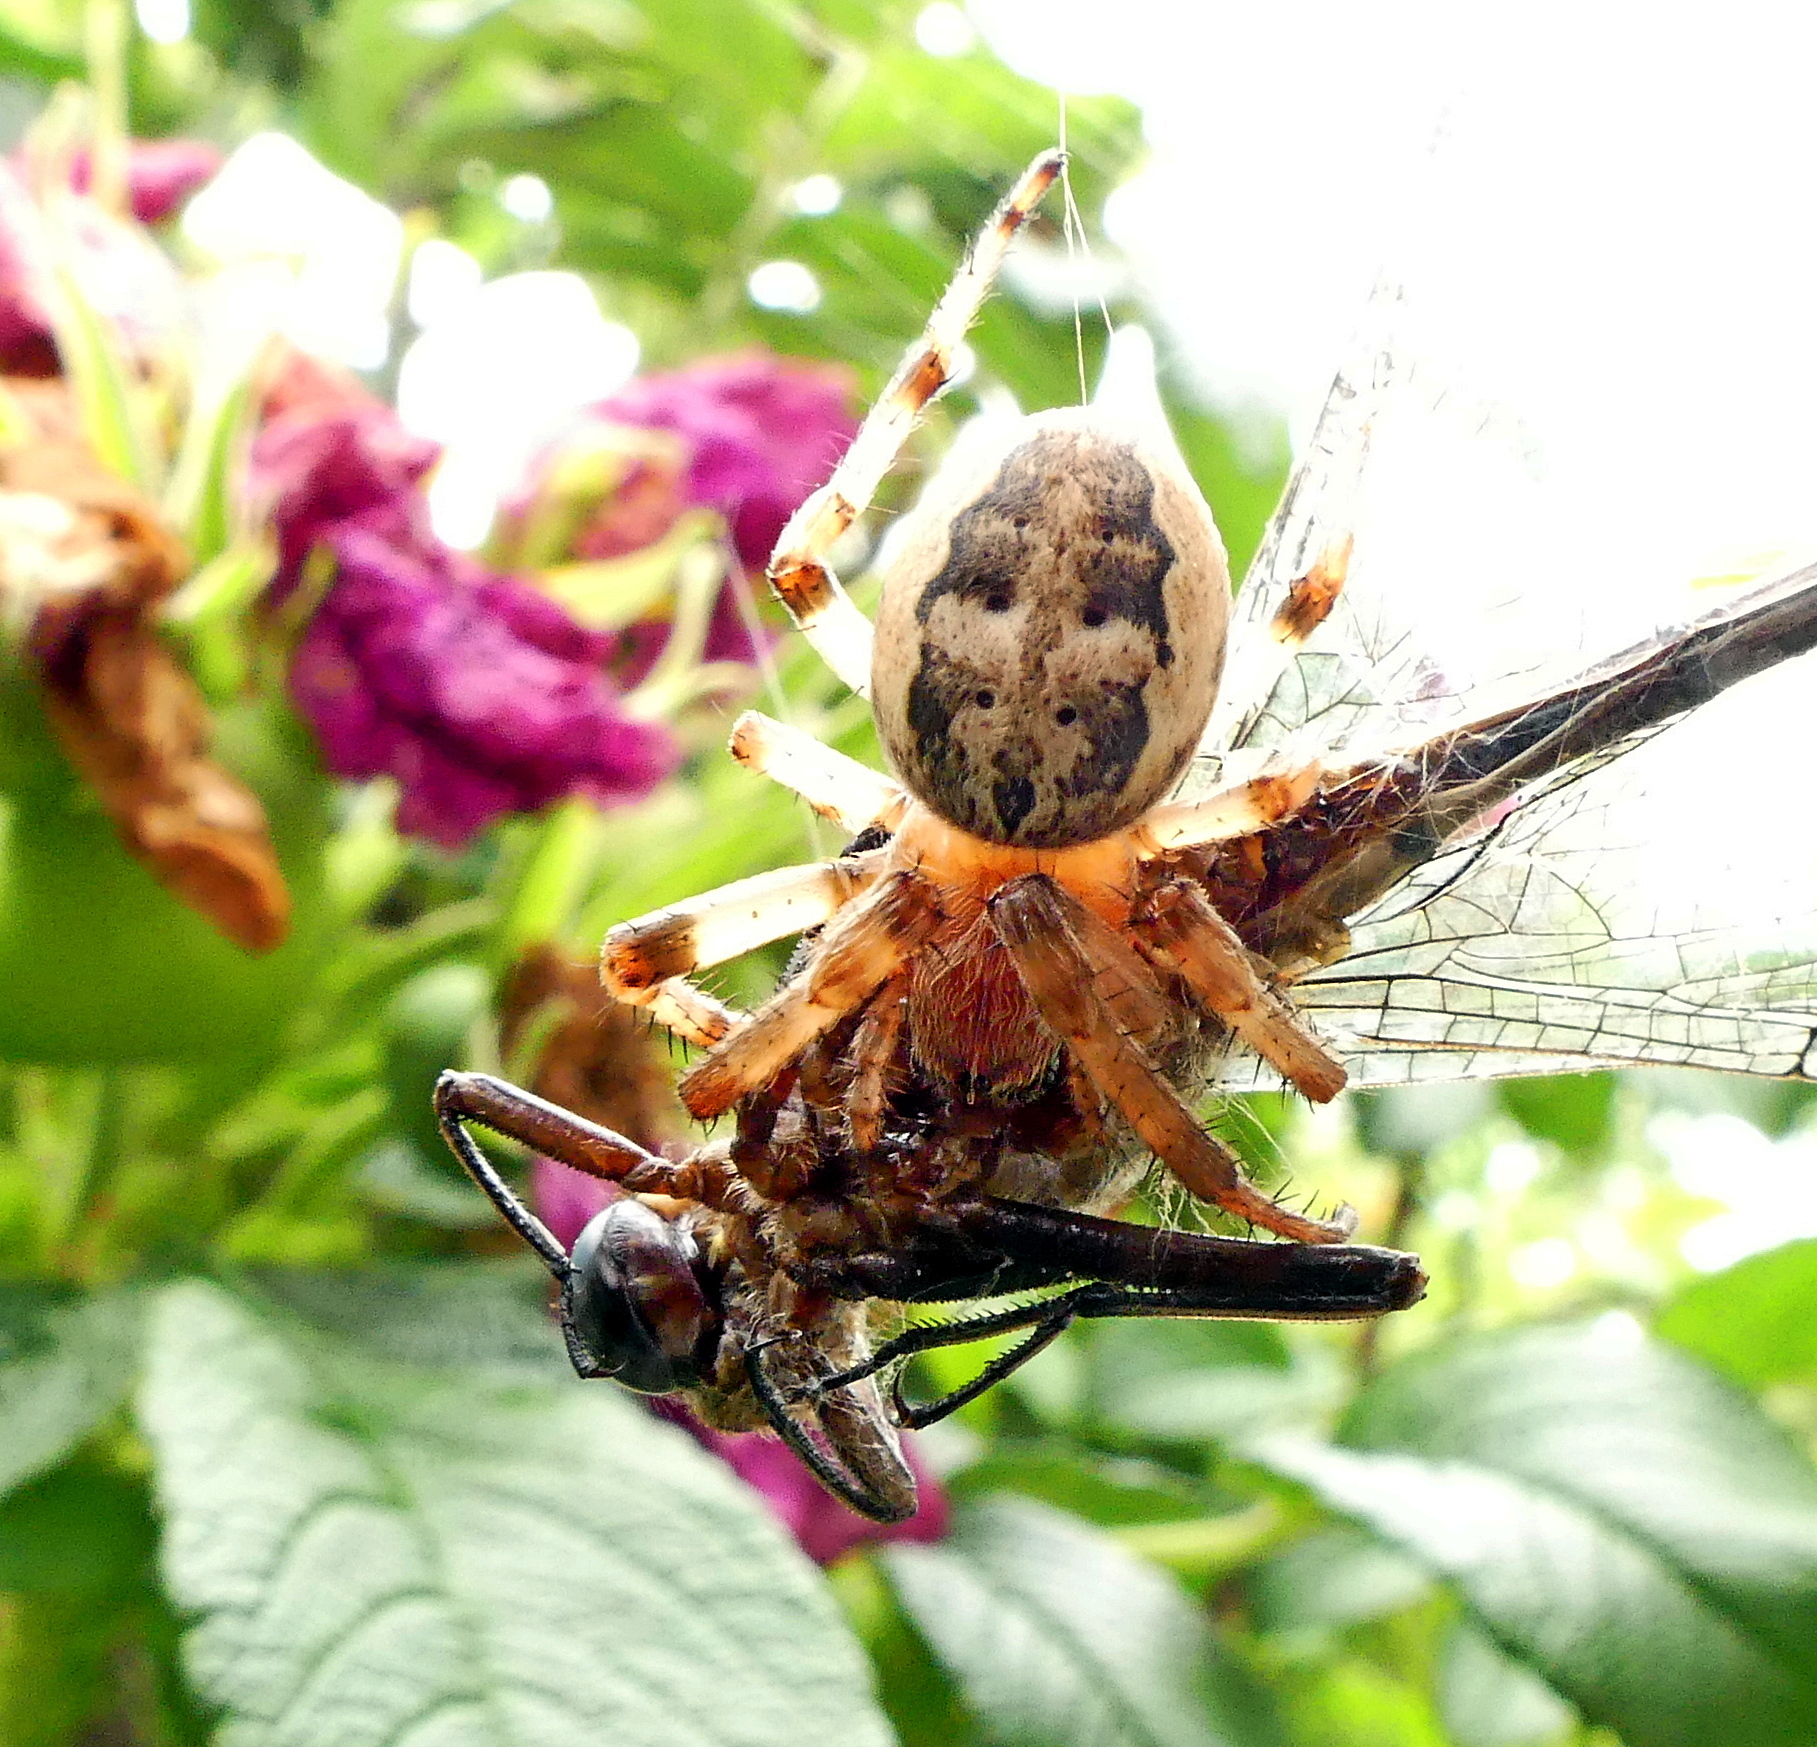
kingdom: Animalia
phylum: Arthropoda
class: Arachnida
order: Araneae
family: Araneidae
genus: Larinioides
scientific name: Larinioides cornutus
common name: Furrow orbweaver
